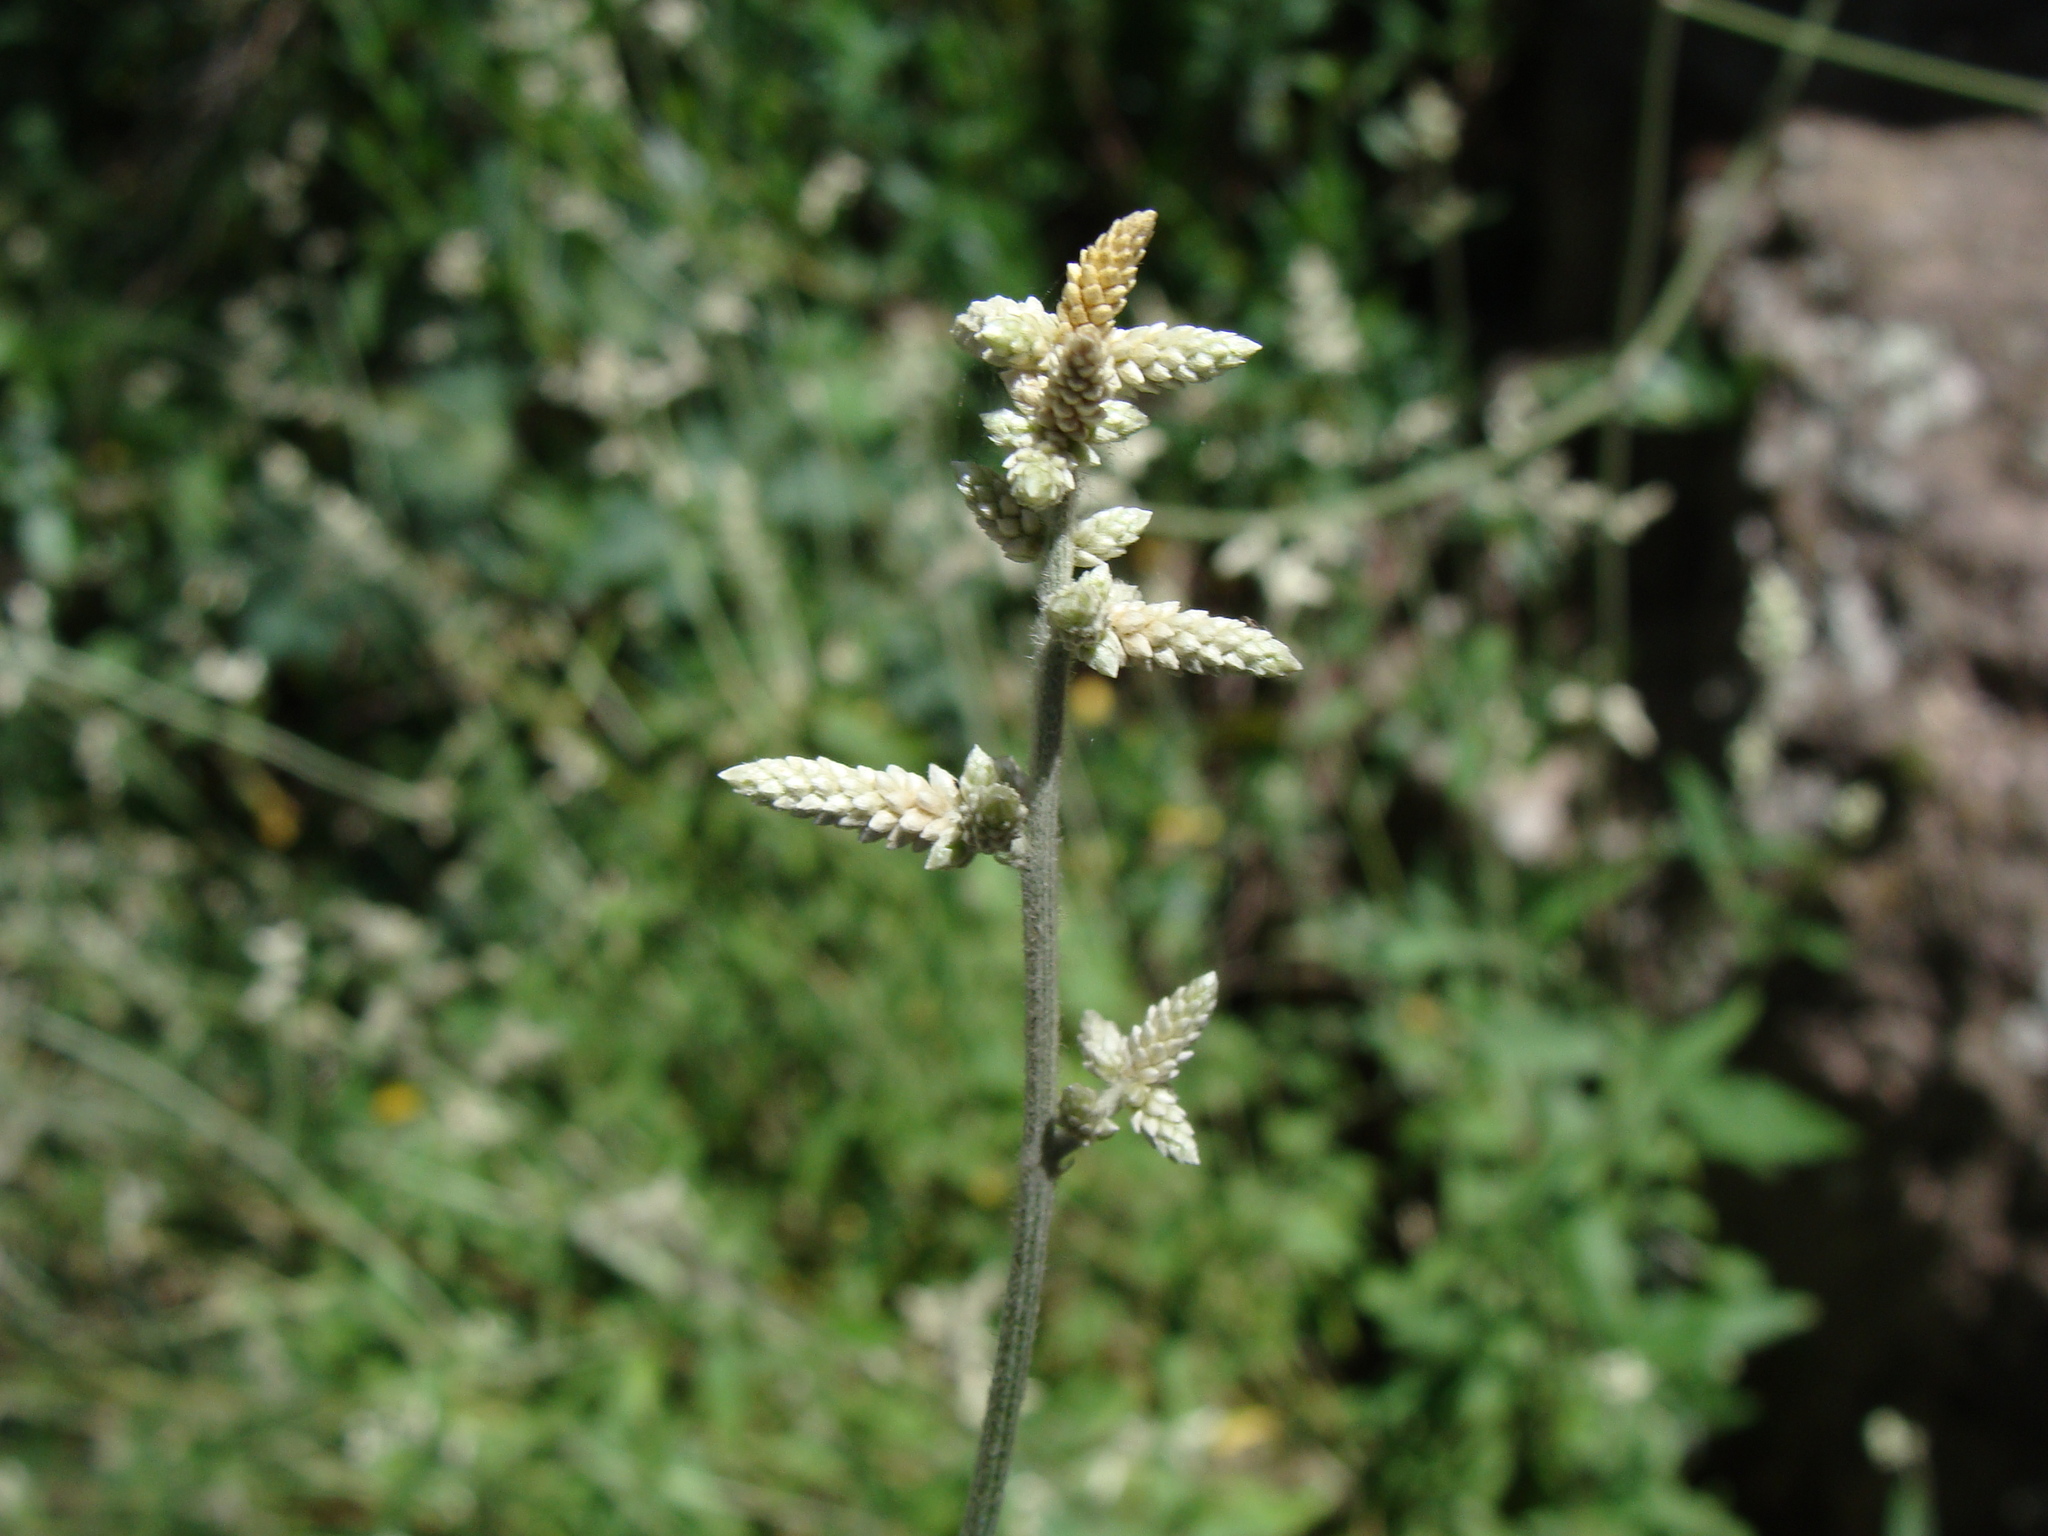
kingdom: Plantae
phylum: Tracheophyta
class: Magnoliopsida
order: Caryophyllales
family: Amaranthaceae
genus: Froelichia
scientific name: Froelichia floridana
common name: Florida snake-cotton
